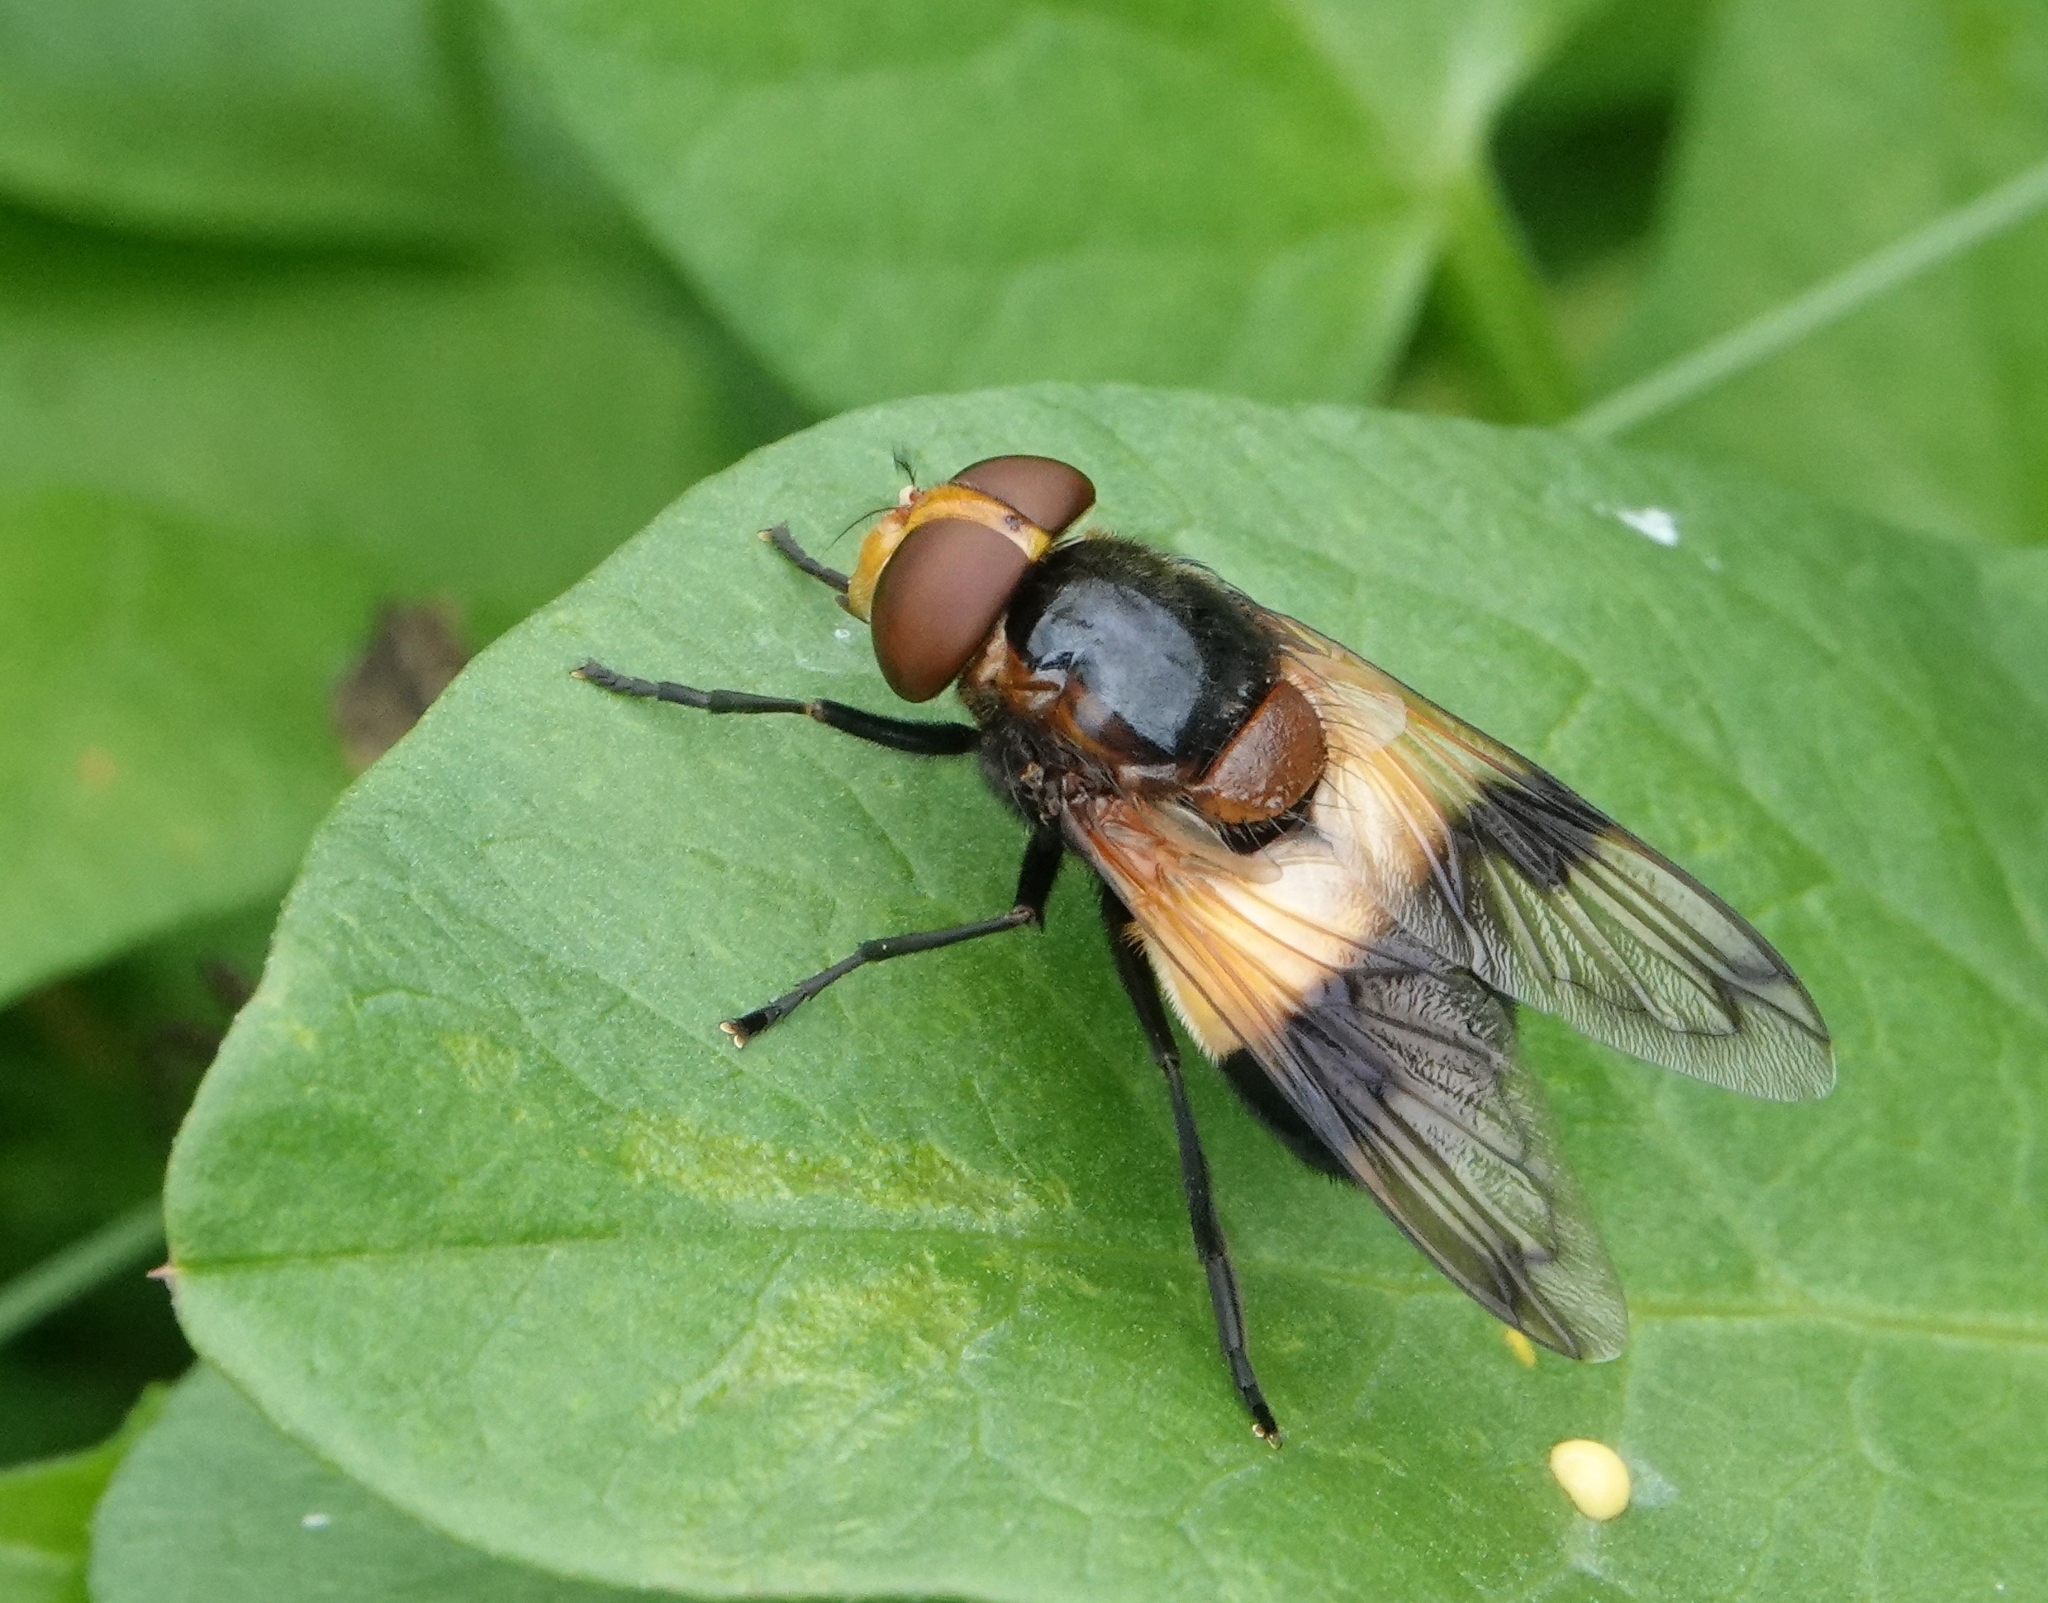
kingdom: Animalia
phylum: Arthropoda
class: Insecta
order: Diptera
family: Syrphidae
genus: Volucella
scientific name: Volucella pellucens
